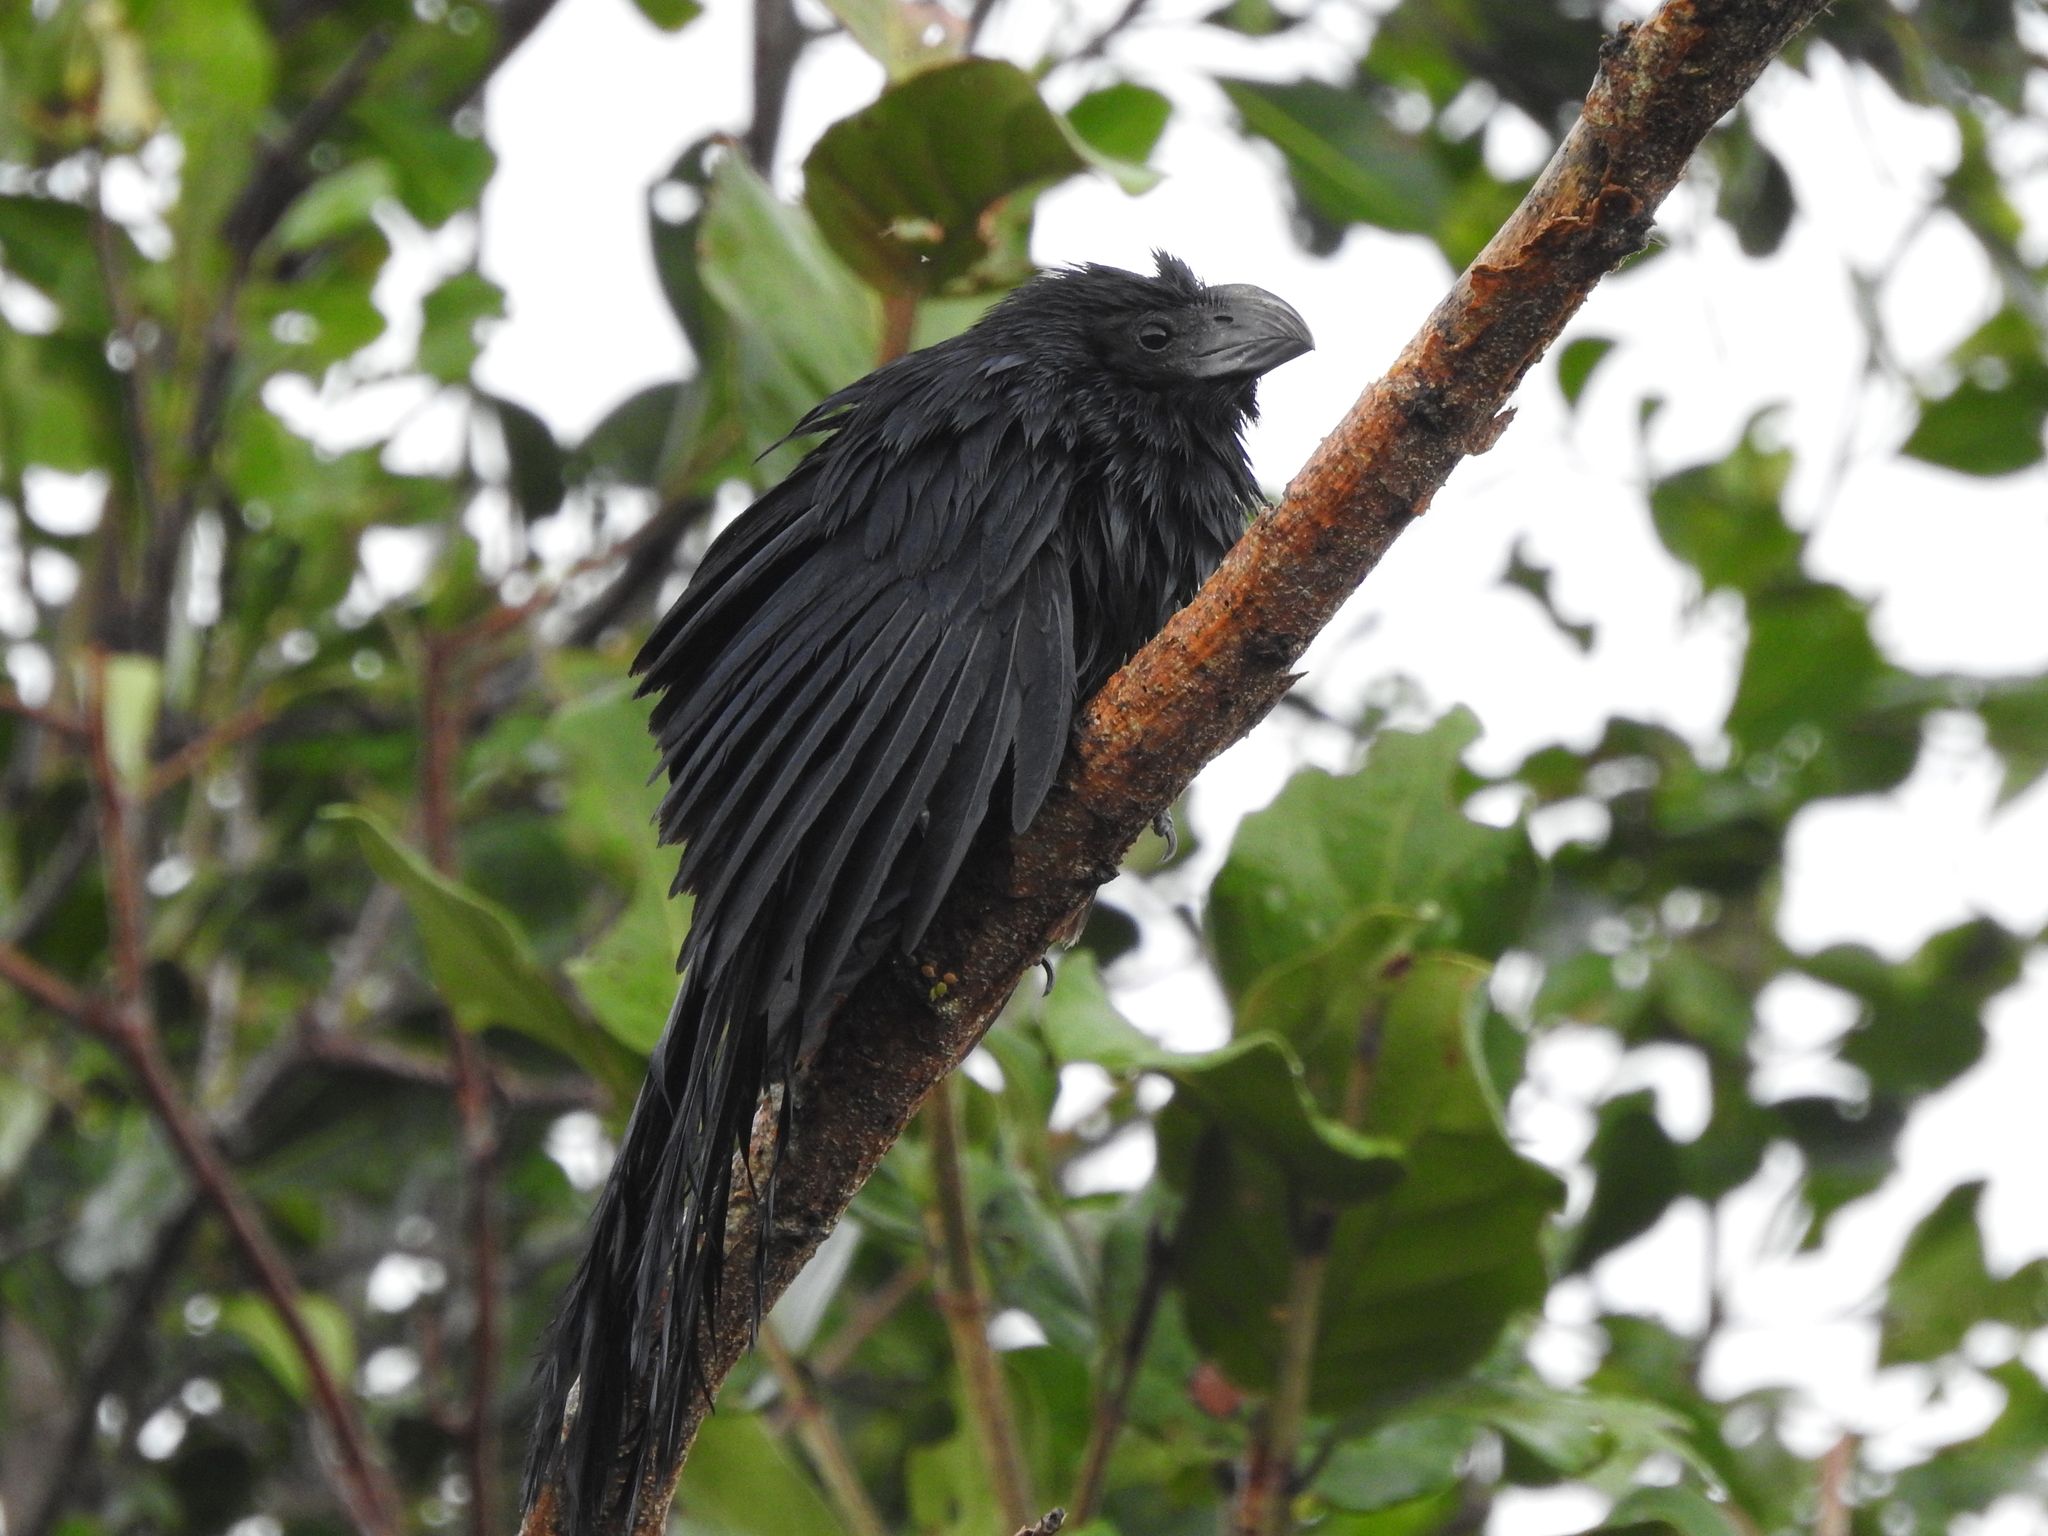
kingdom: Animalia
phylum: Chordata
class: Aves
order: Cuculiformes
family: Cuculidae
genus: Crotophaga
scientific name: Crotophaga sulcirostris
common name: Groove-billed ani
